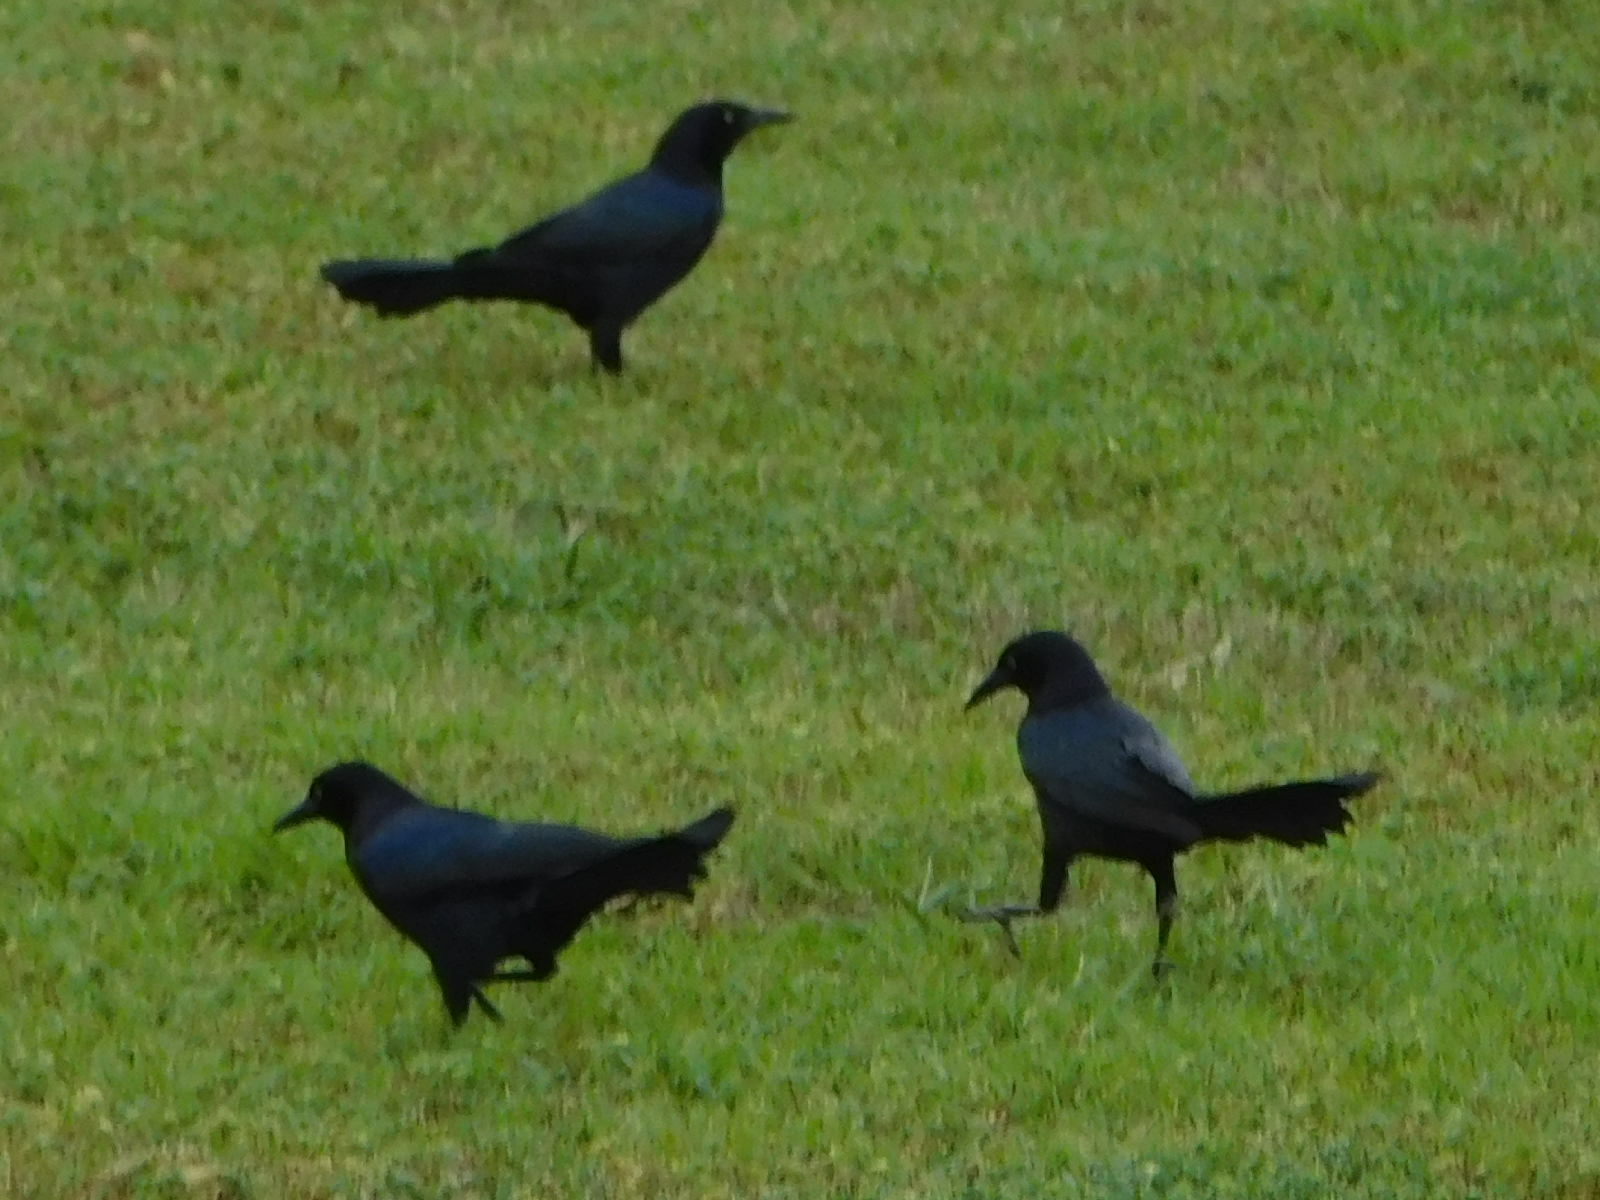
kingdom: Animalia
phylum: Chordata
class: Aves
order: Passeriformes
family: Icteridae
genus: Quiscalus
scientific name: Quiscalus mexicanus
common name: Great-tailed grackle
